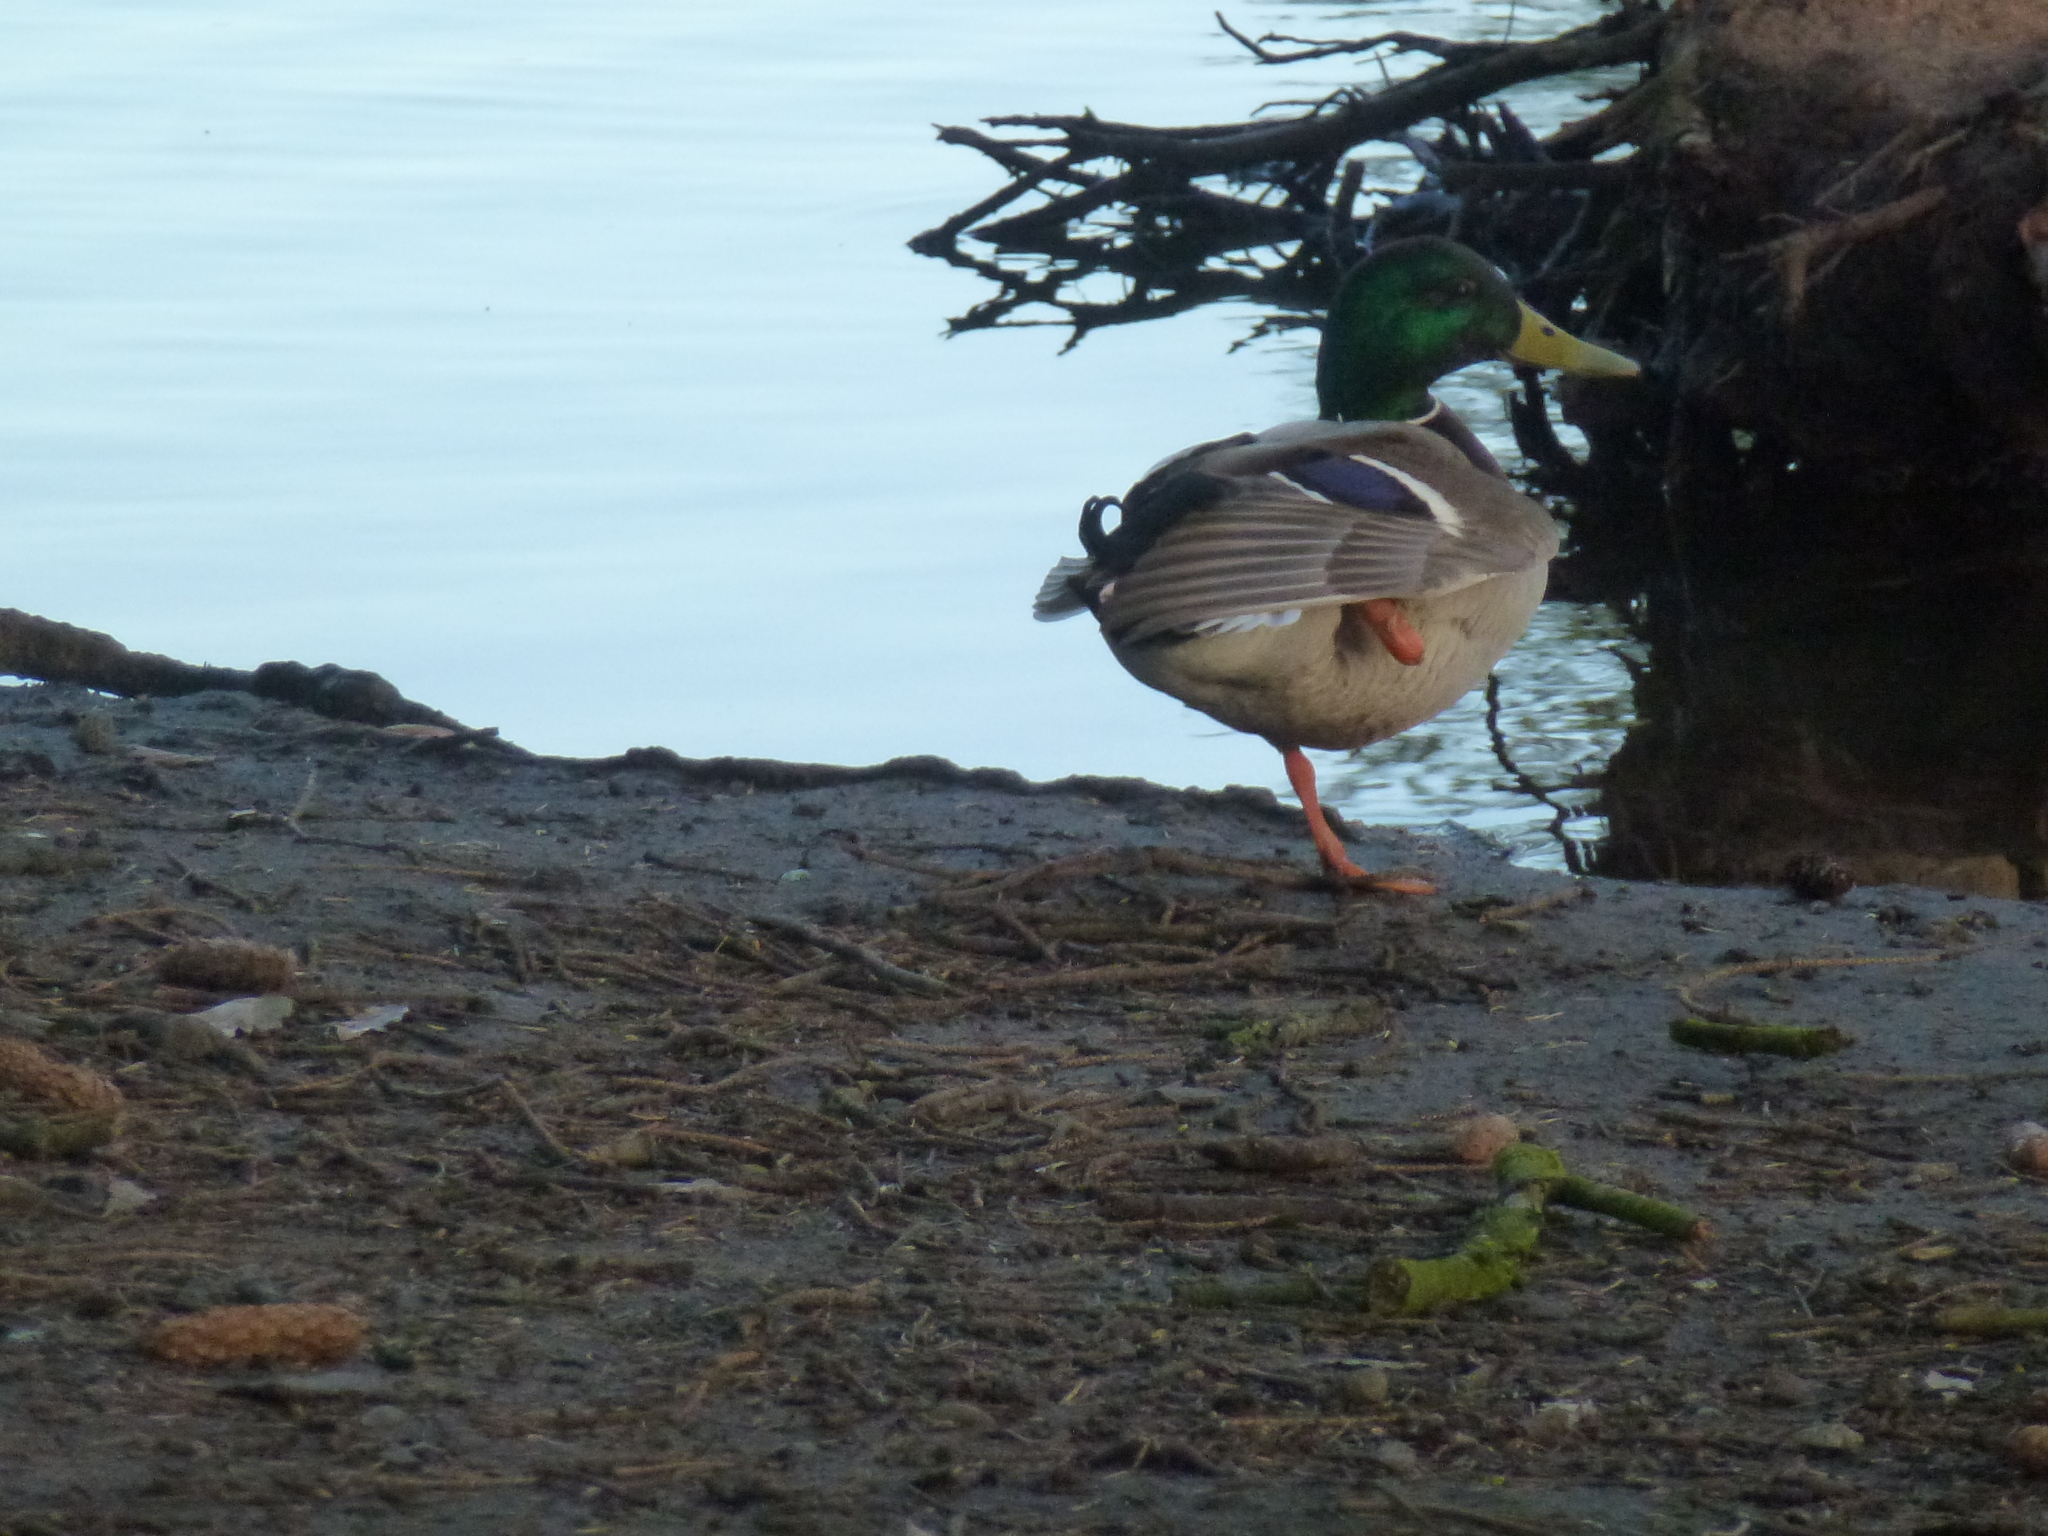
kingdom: Animalia
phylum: Chordata
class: Aves
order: Anseriformes
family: Anatidae
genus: Anas
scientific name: Anas platyrhynchos
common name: Mallard
